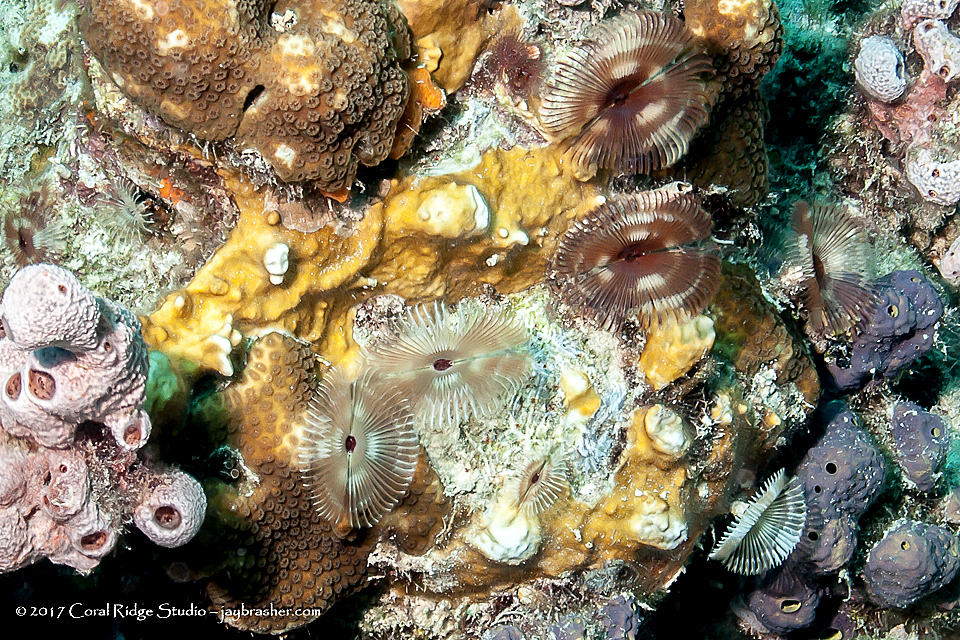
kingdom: Animalia
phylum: Annelida
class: Polychaeta
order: Sabellida
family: Sabellidae
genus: Anamobaea
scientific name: Anamobaea orstedii
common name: Split-crown feather duster
